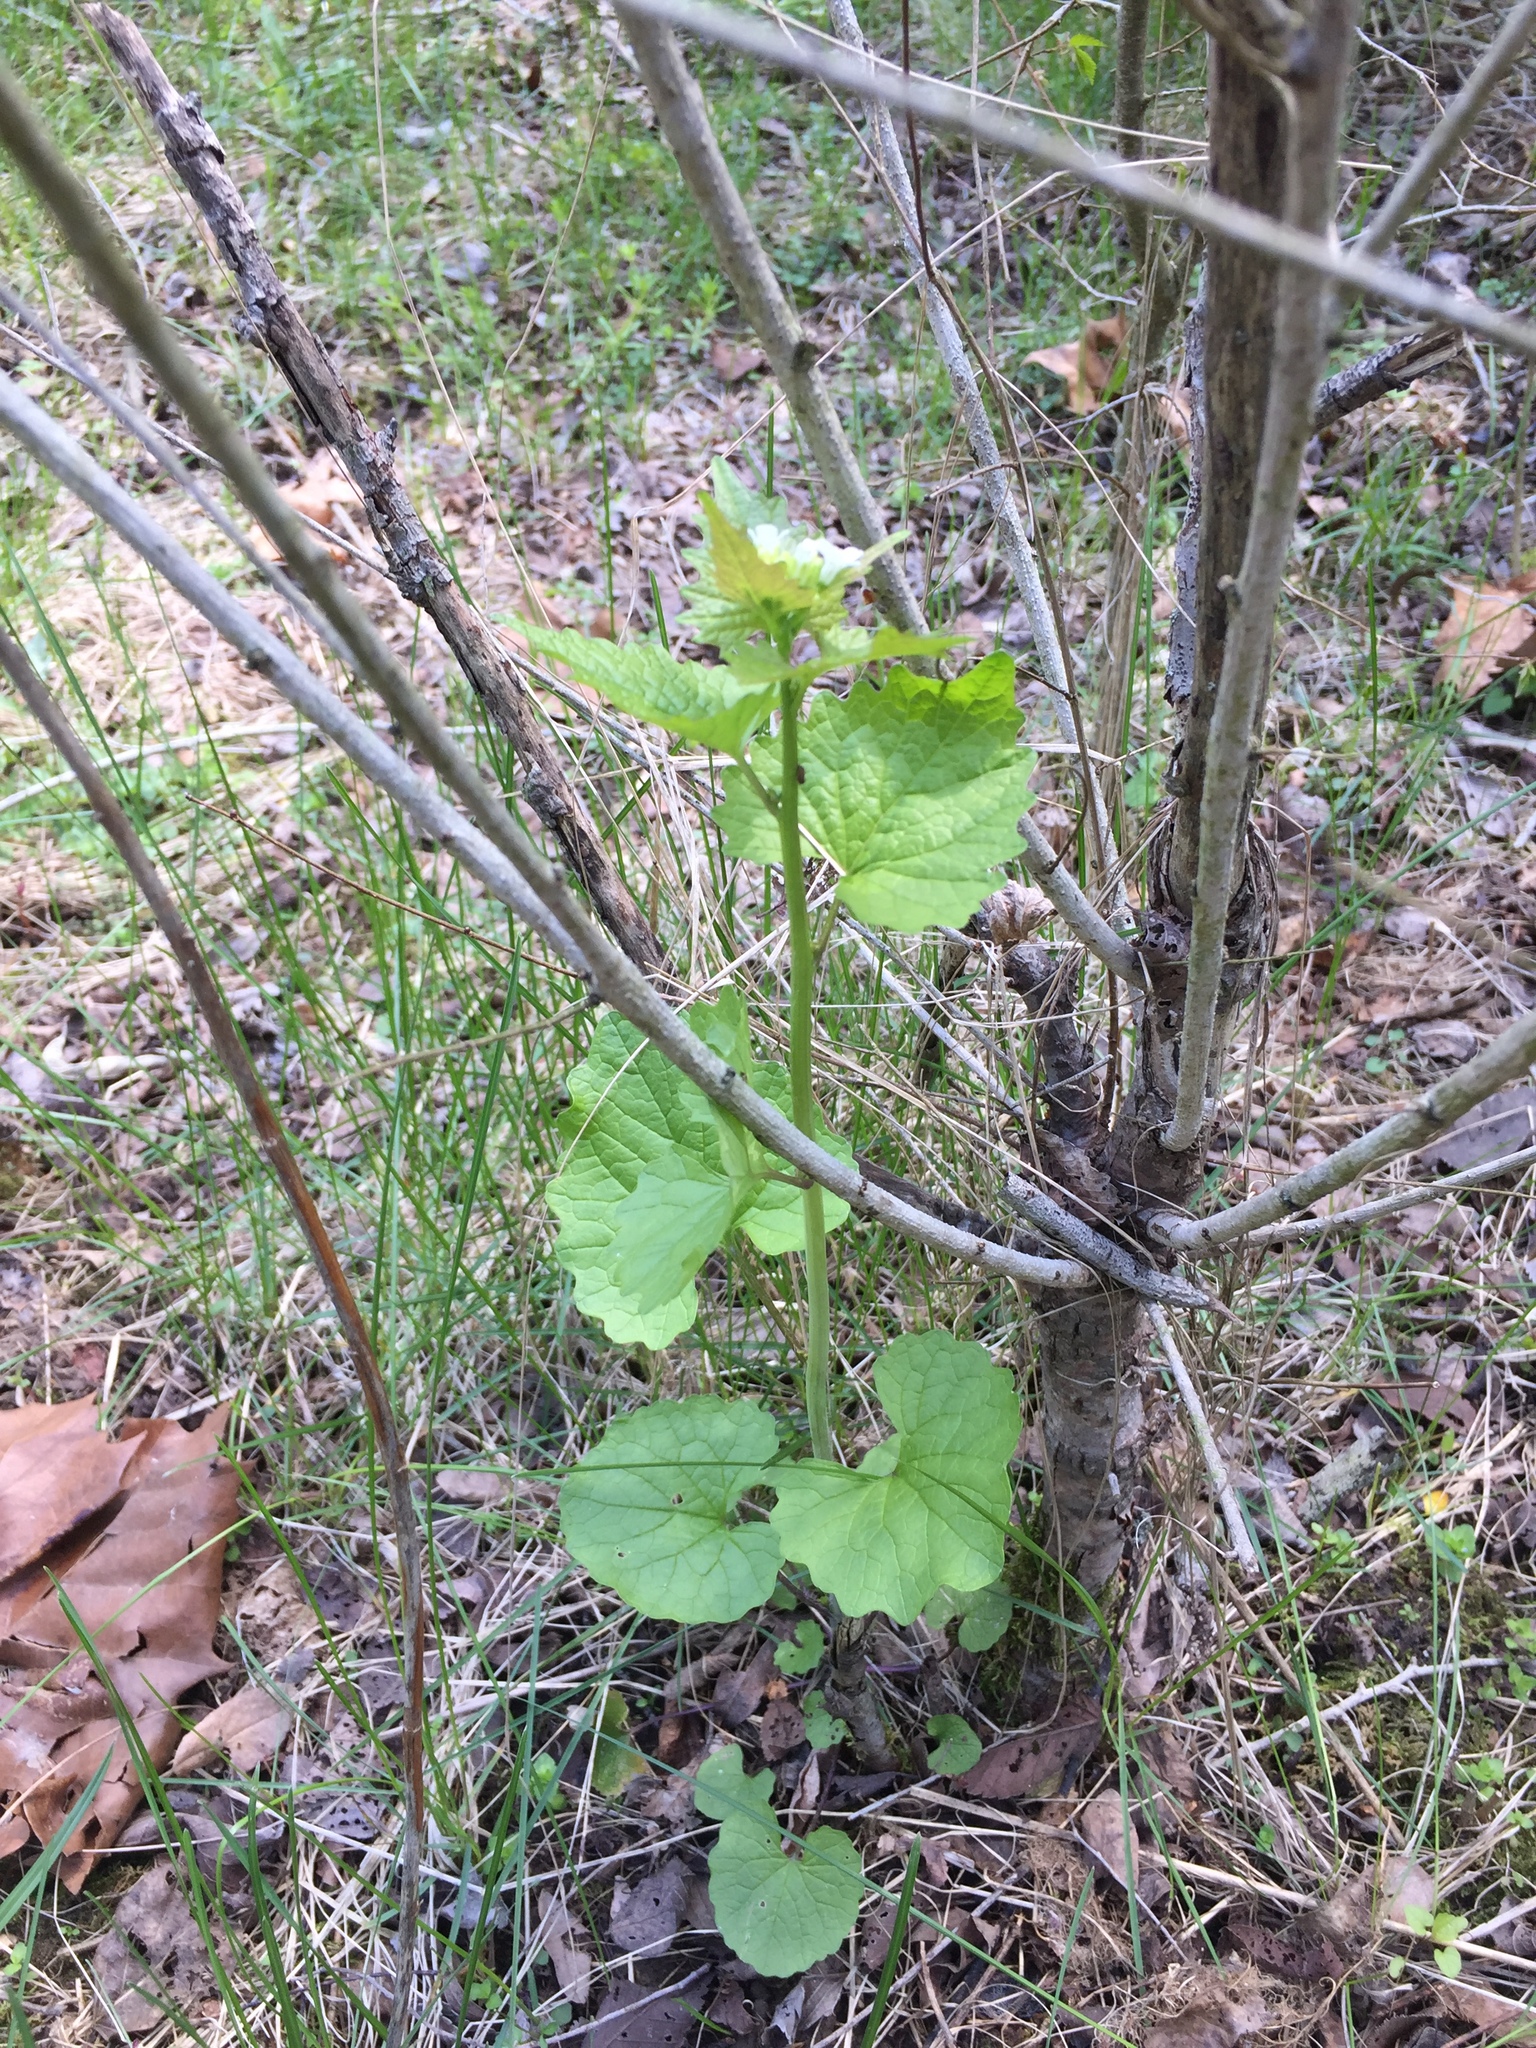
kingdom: Plantae
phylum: Tracheophyta
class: Magnoliopsida
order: Brassicales
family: Brassicaceae
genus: Alliaria
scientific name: Alliaria petiolata
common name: Garlic mustard
